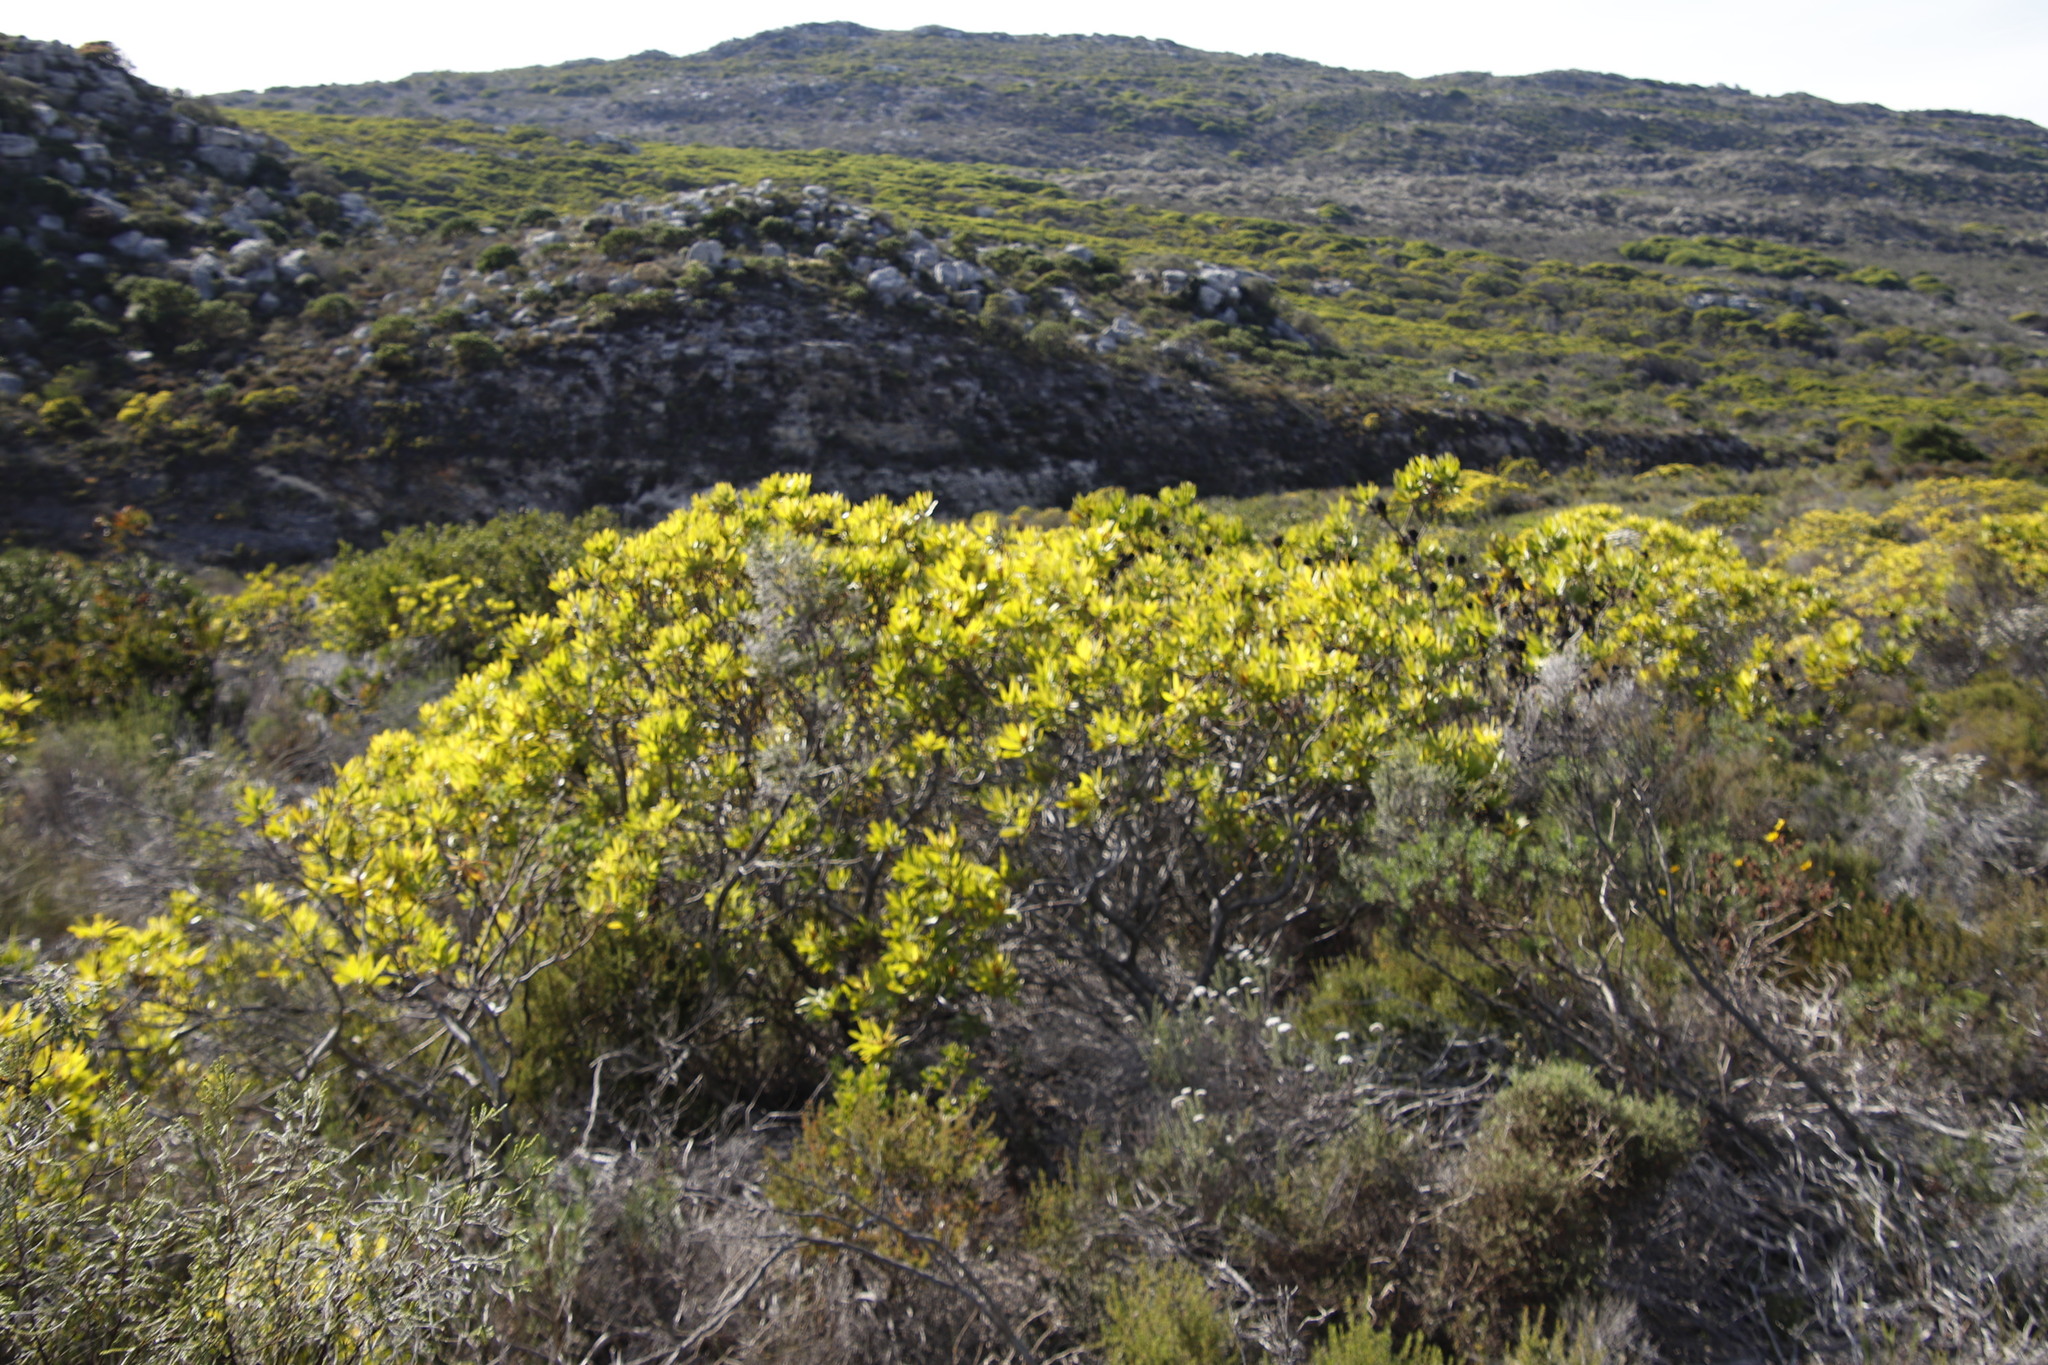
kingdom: Plantae
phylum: Tracheophyta
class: Magnoliopsida
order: Proteales
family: Proteaceae
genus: Leucadendron
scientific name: Leucadendron laureolum
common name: Golden sunshinebush
